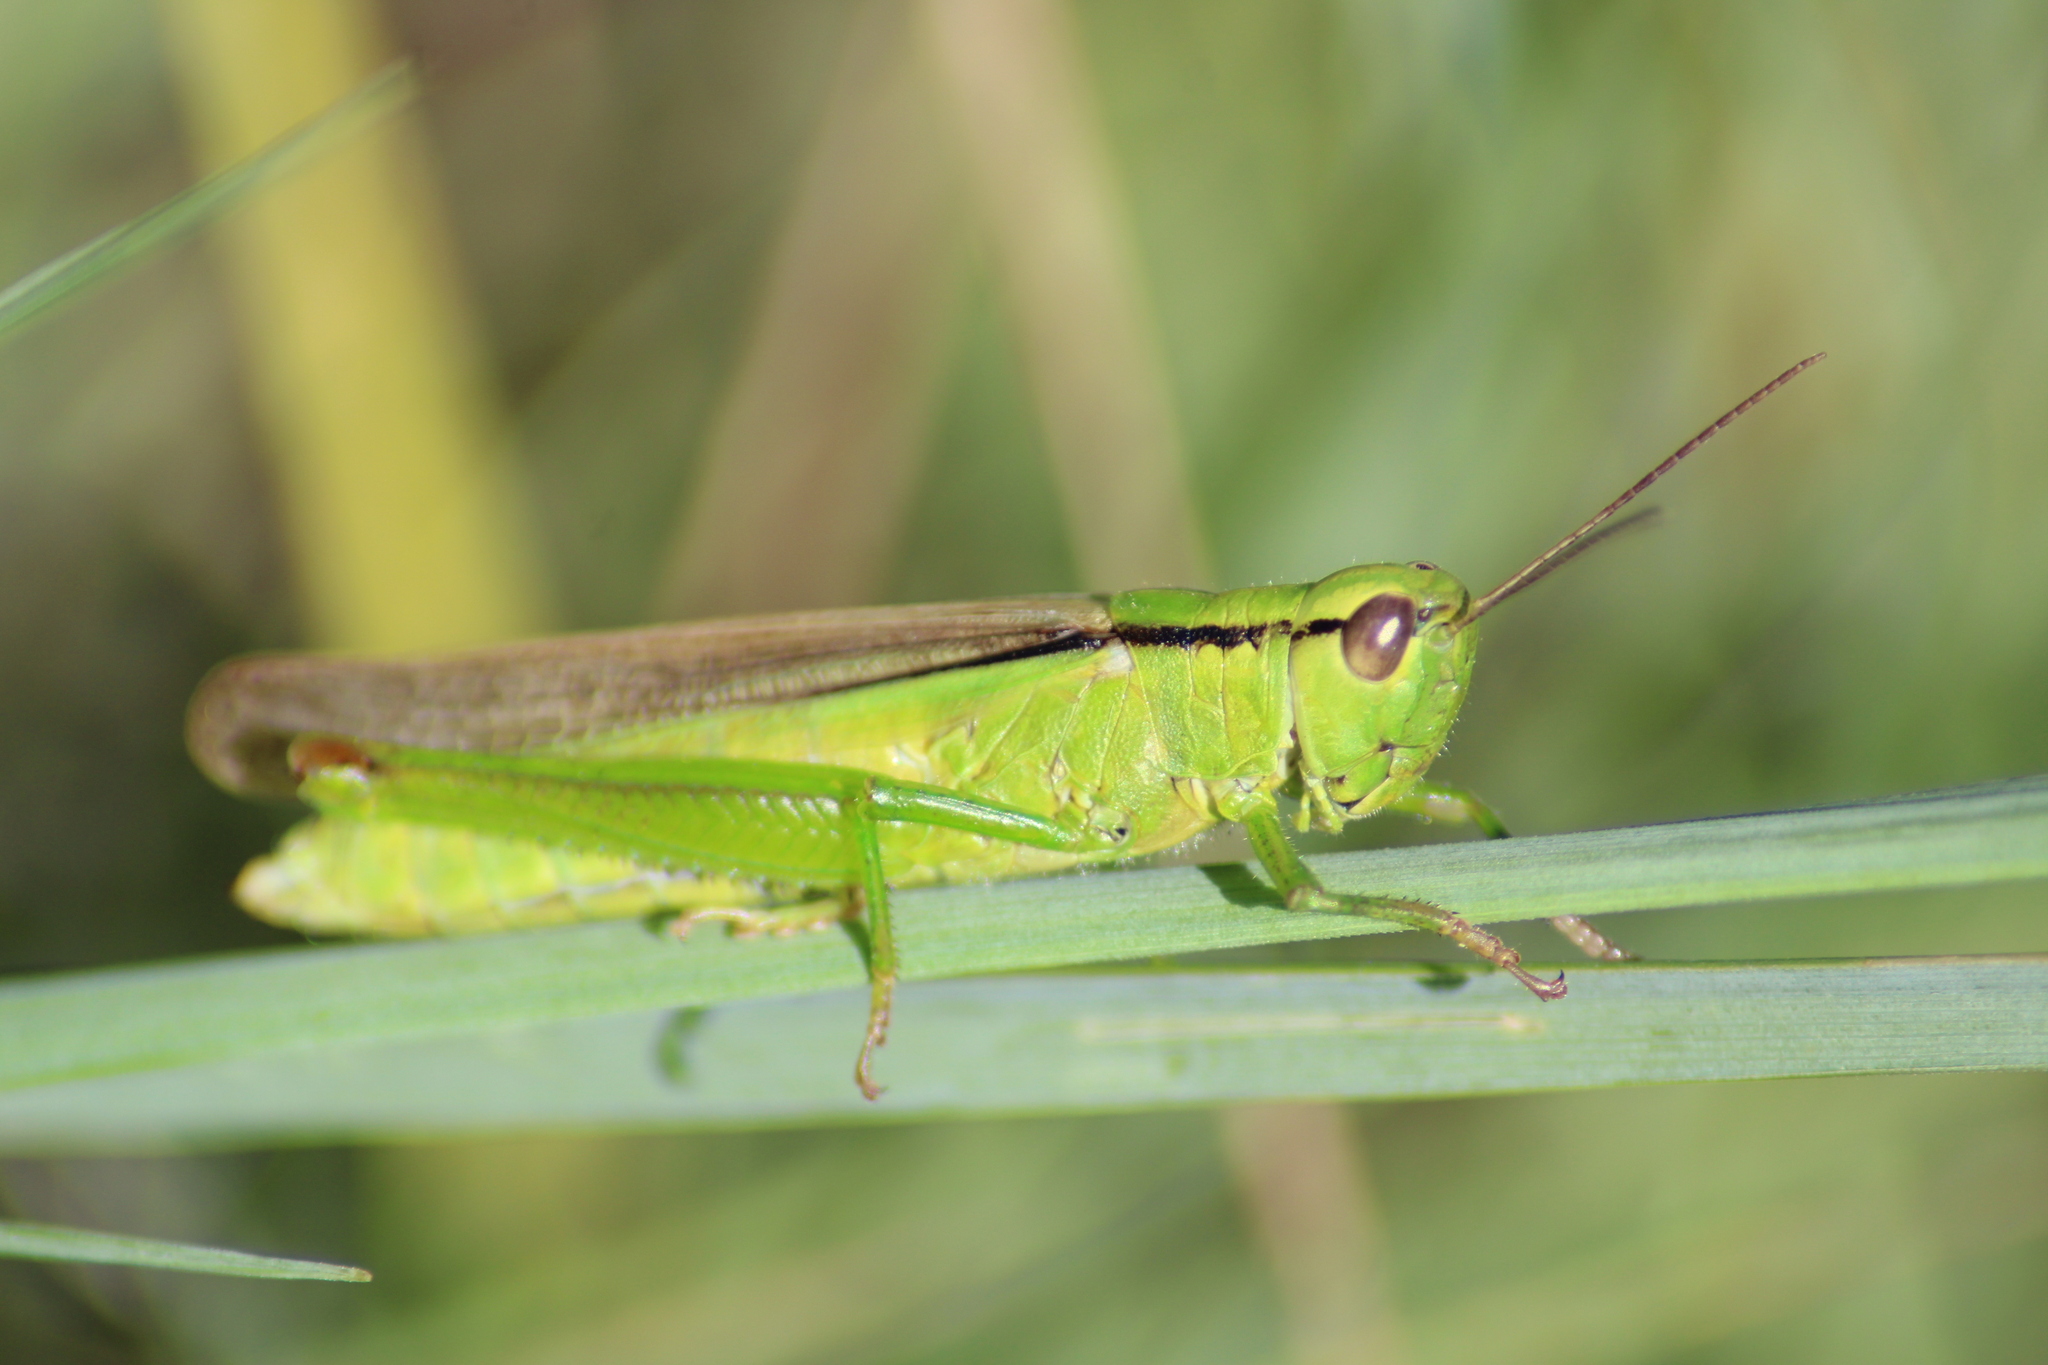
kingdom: Animalia
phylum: Arthropoda
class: Insecta
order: Orthoptera
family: Acrididae
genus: Mecostethus
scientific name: Mecostethus parapleurus
